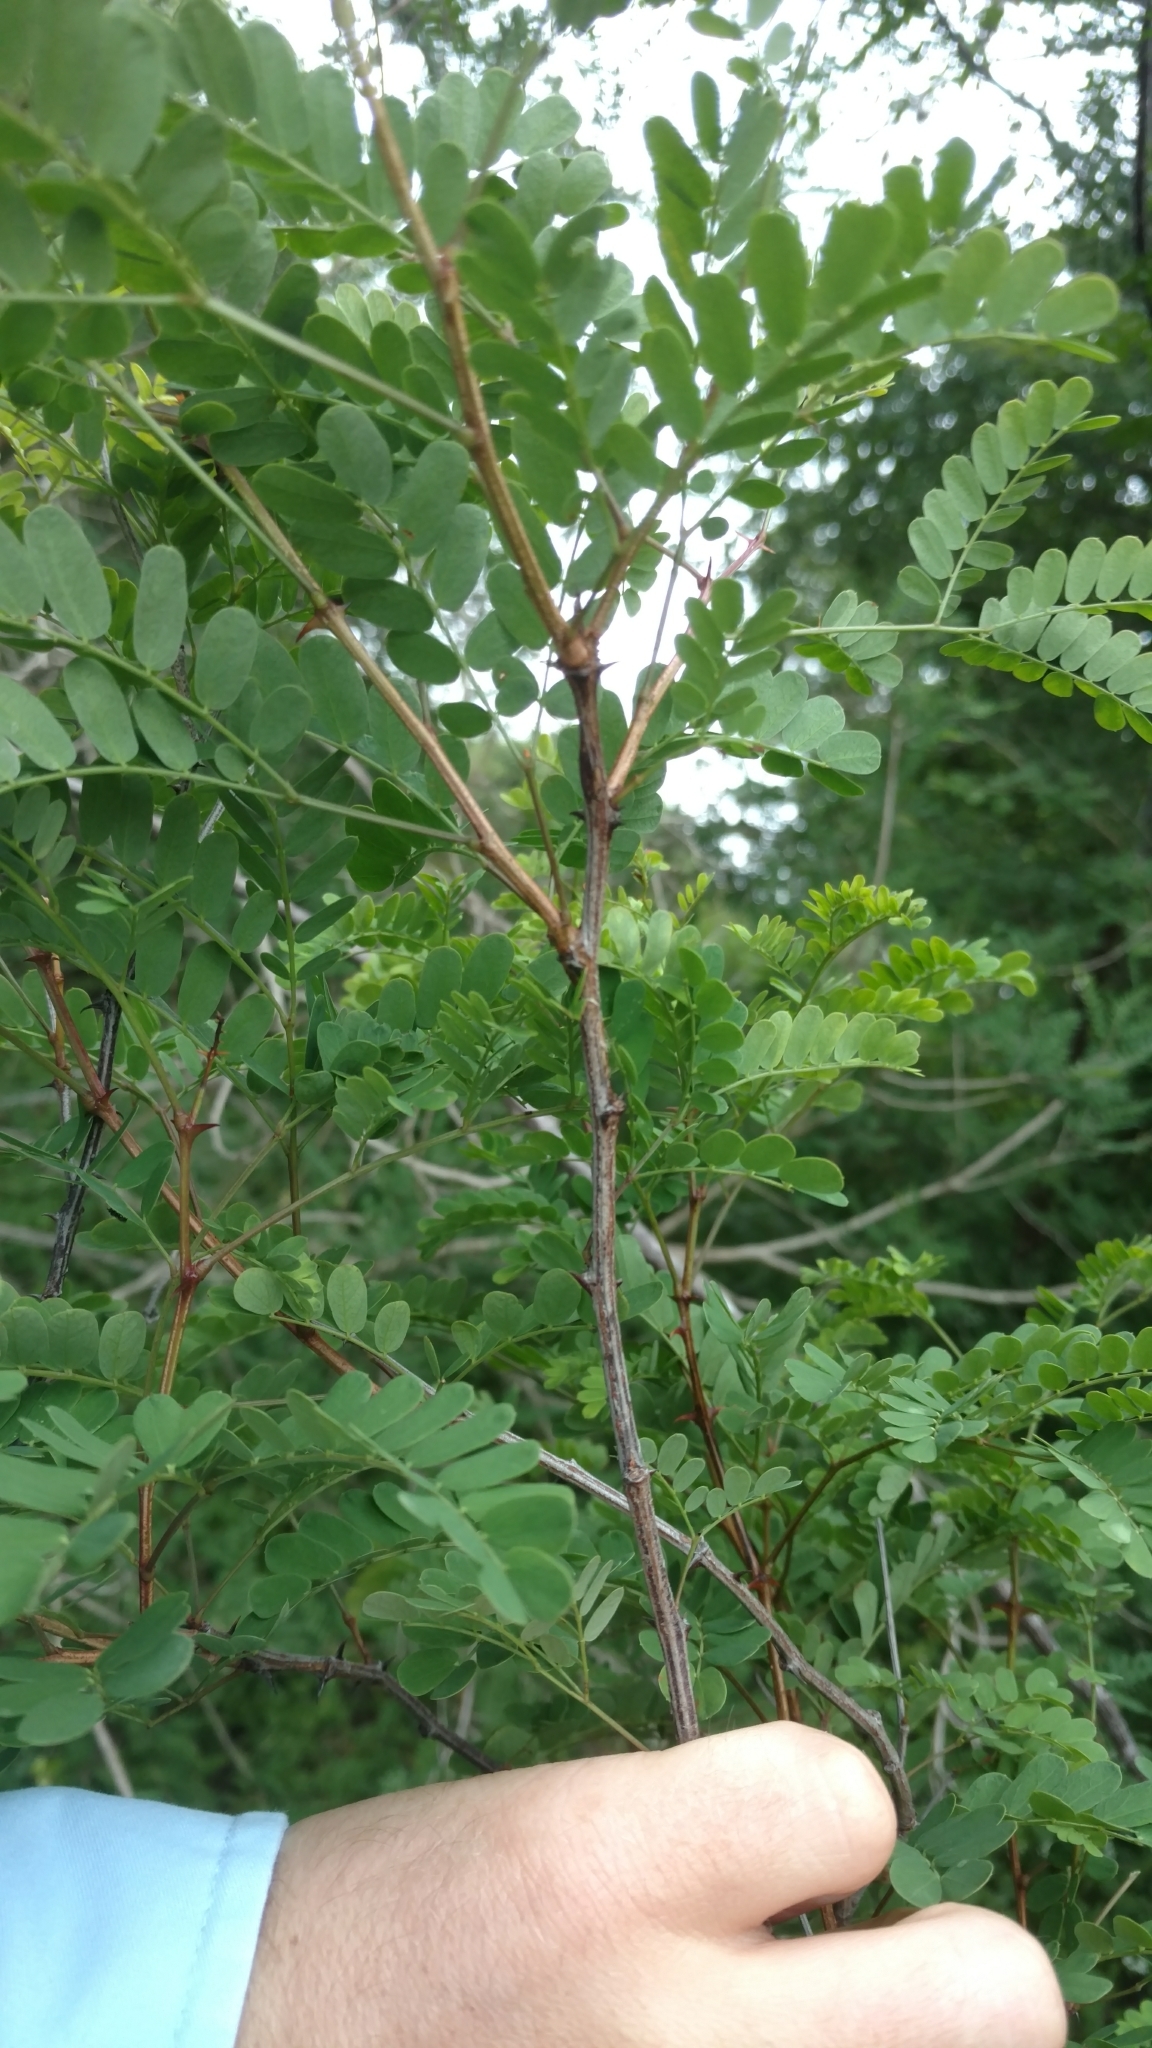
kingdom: Plantae
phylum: Tracheophyta
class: Magnoliopsida
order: Fabales
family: Fabaceae
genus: Senegalia
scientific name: Senegalia roemeriana
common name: Roemer's acacia
